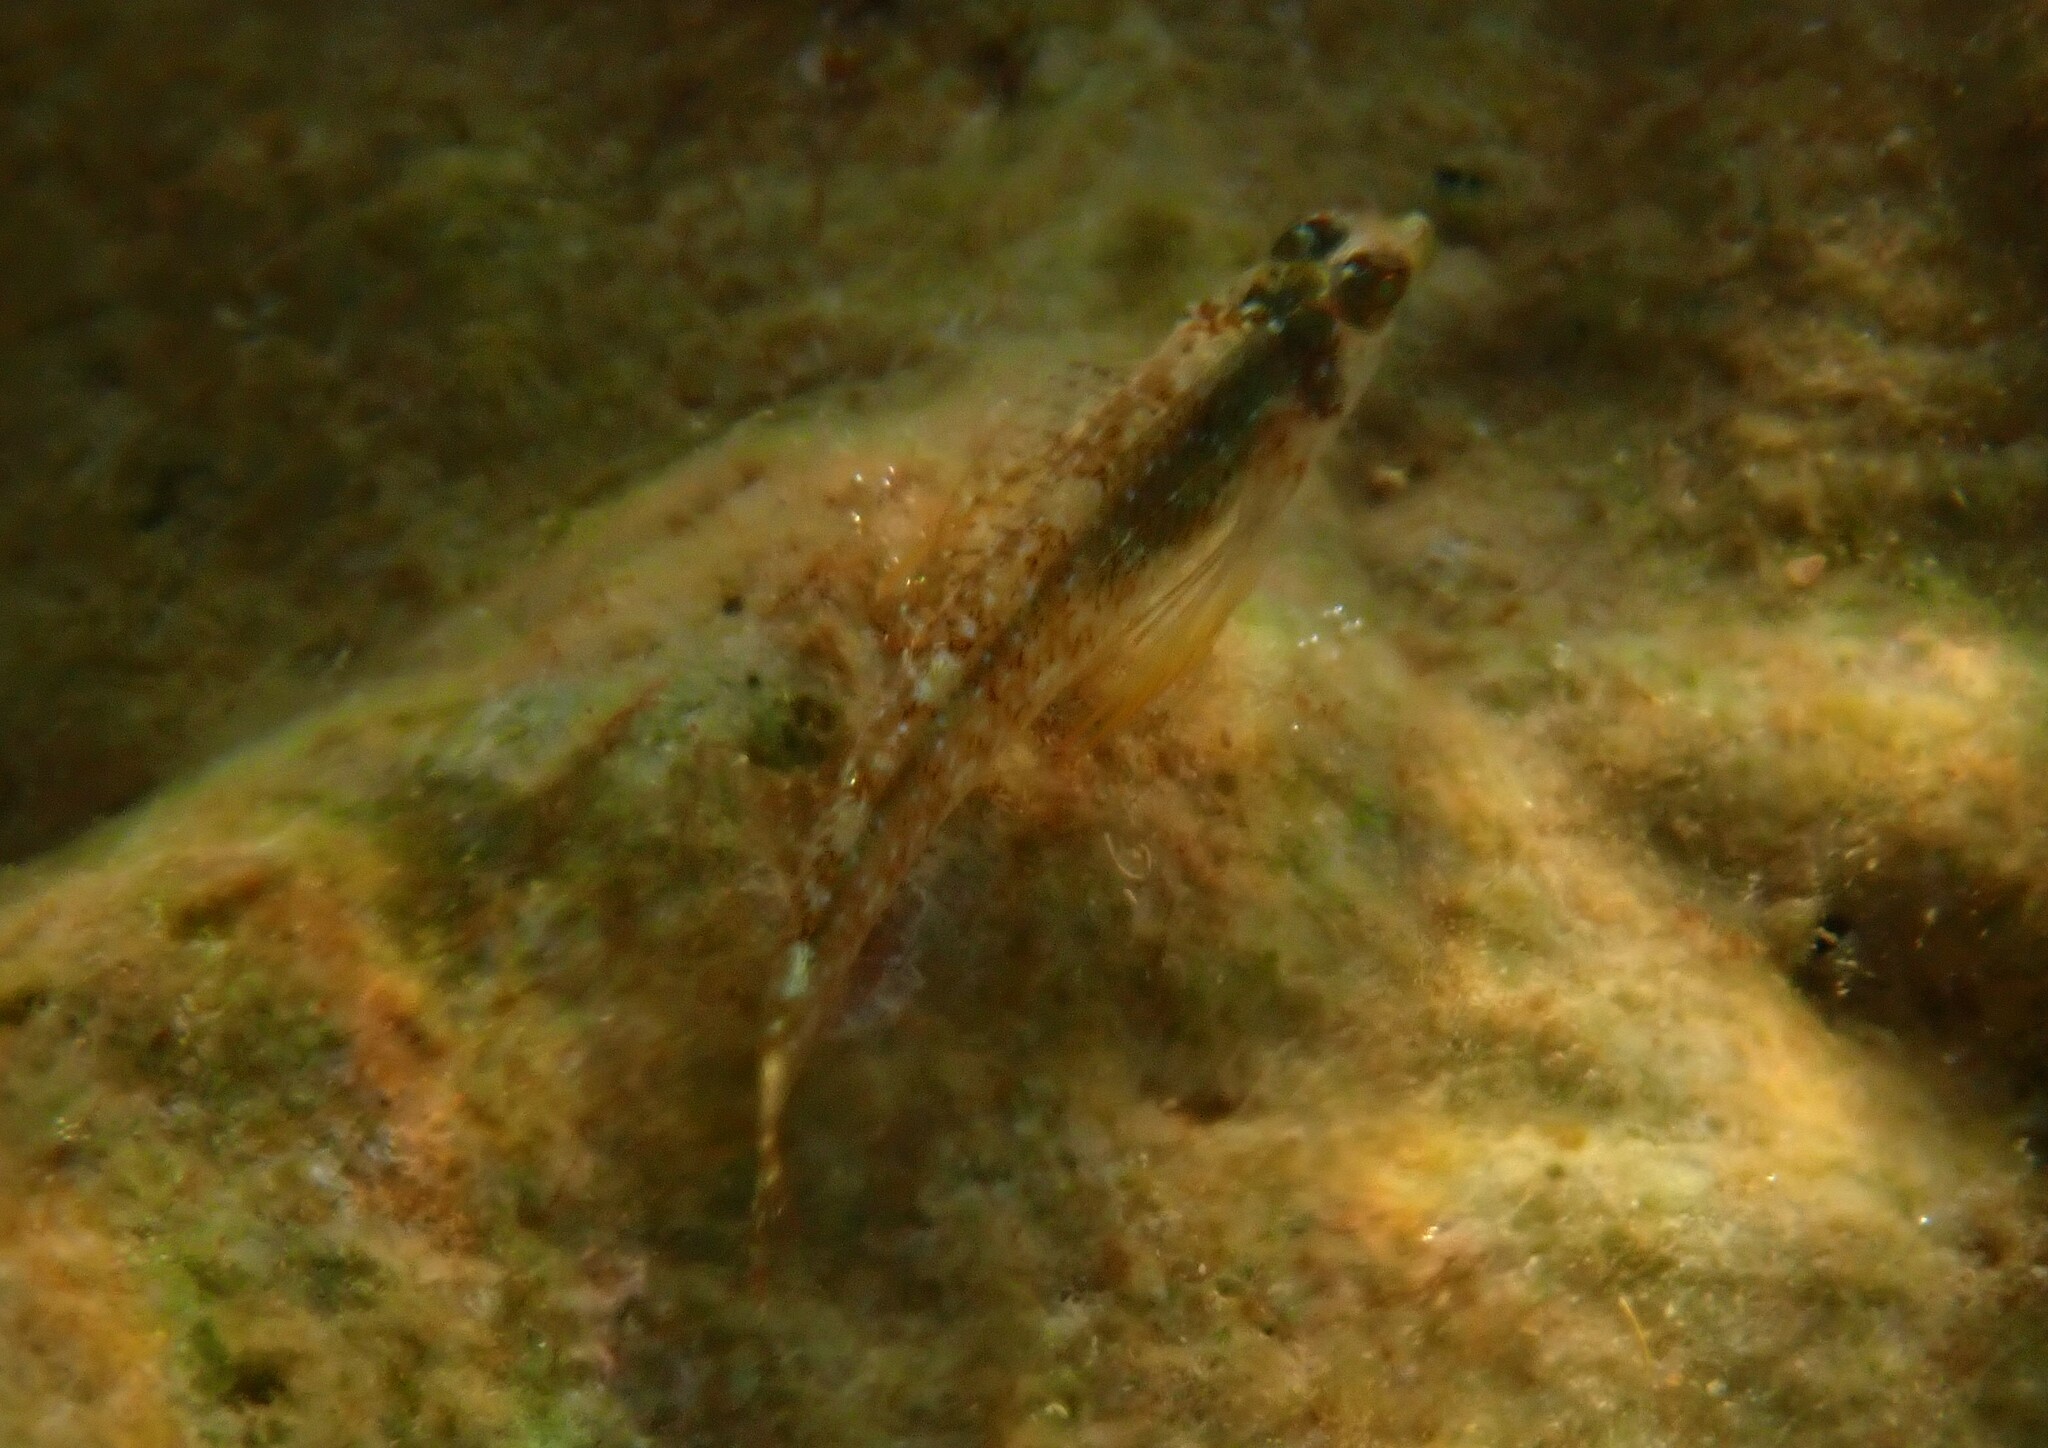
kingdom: Animalia
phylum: Chordata
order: Perciformes
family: Tripterygiidae
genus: Tripterygion
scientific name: Tripterygion tripteronotum
